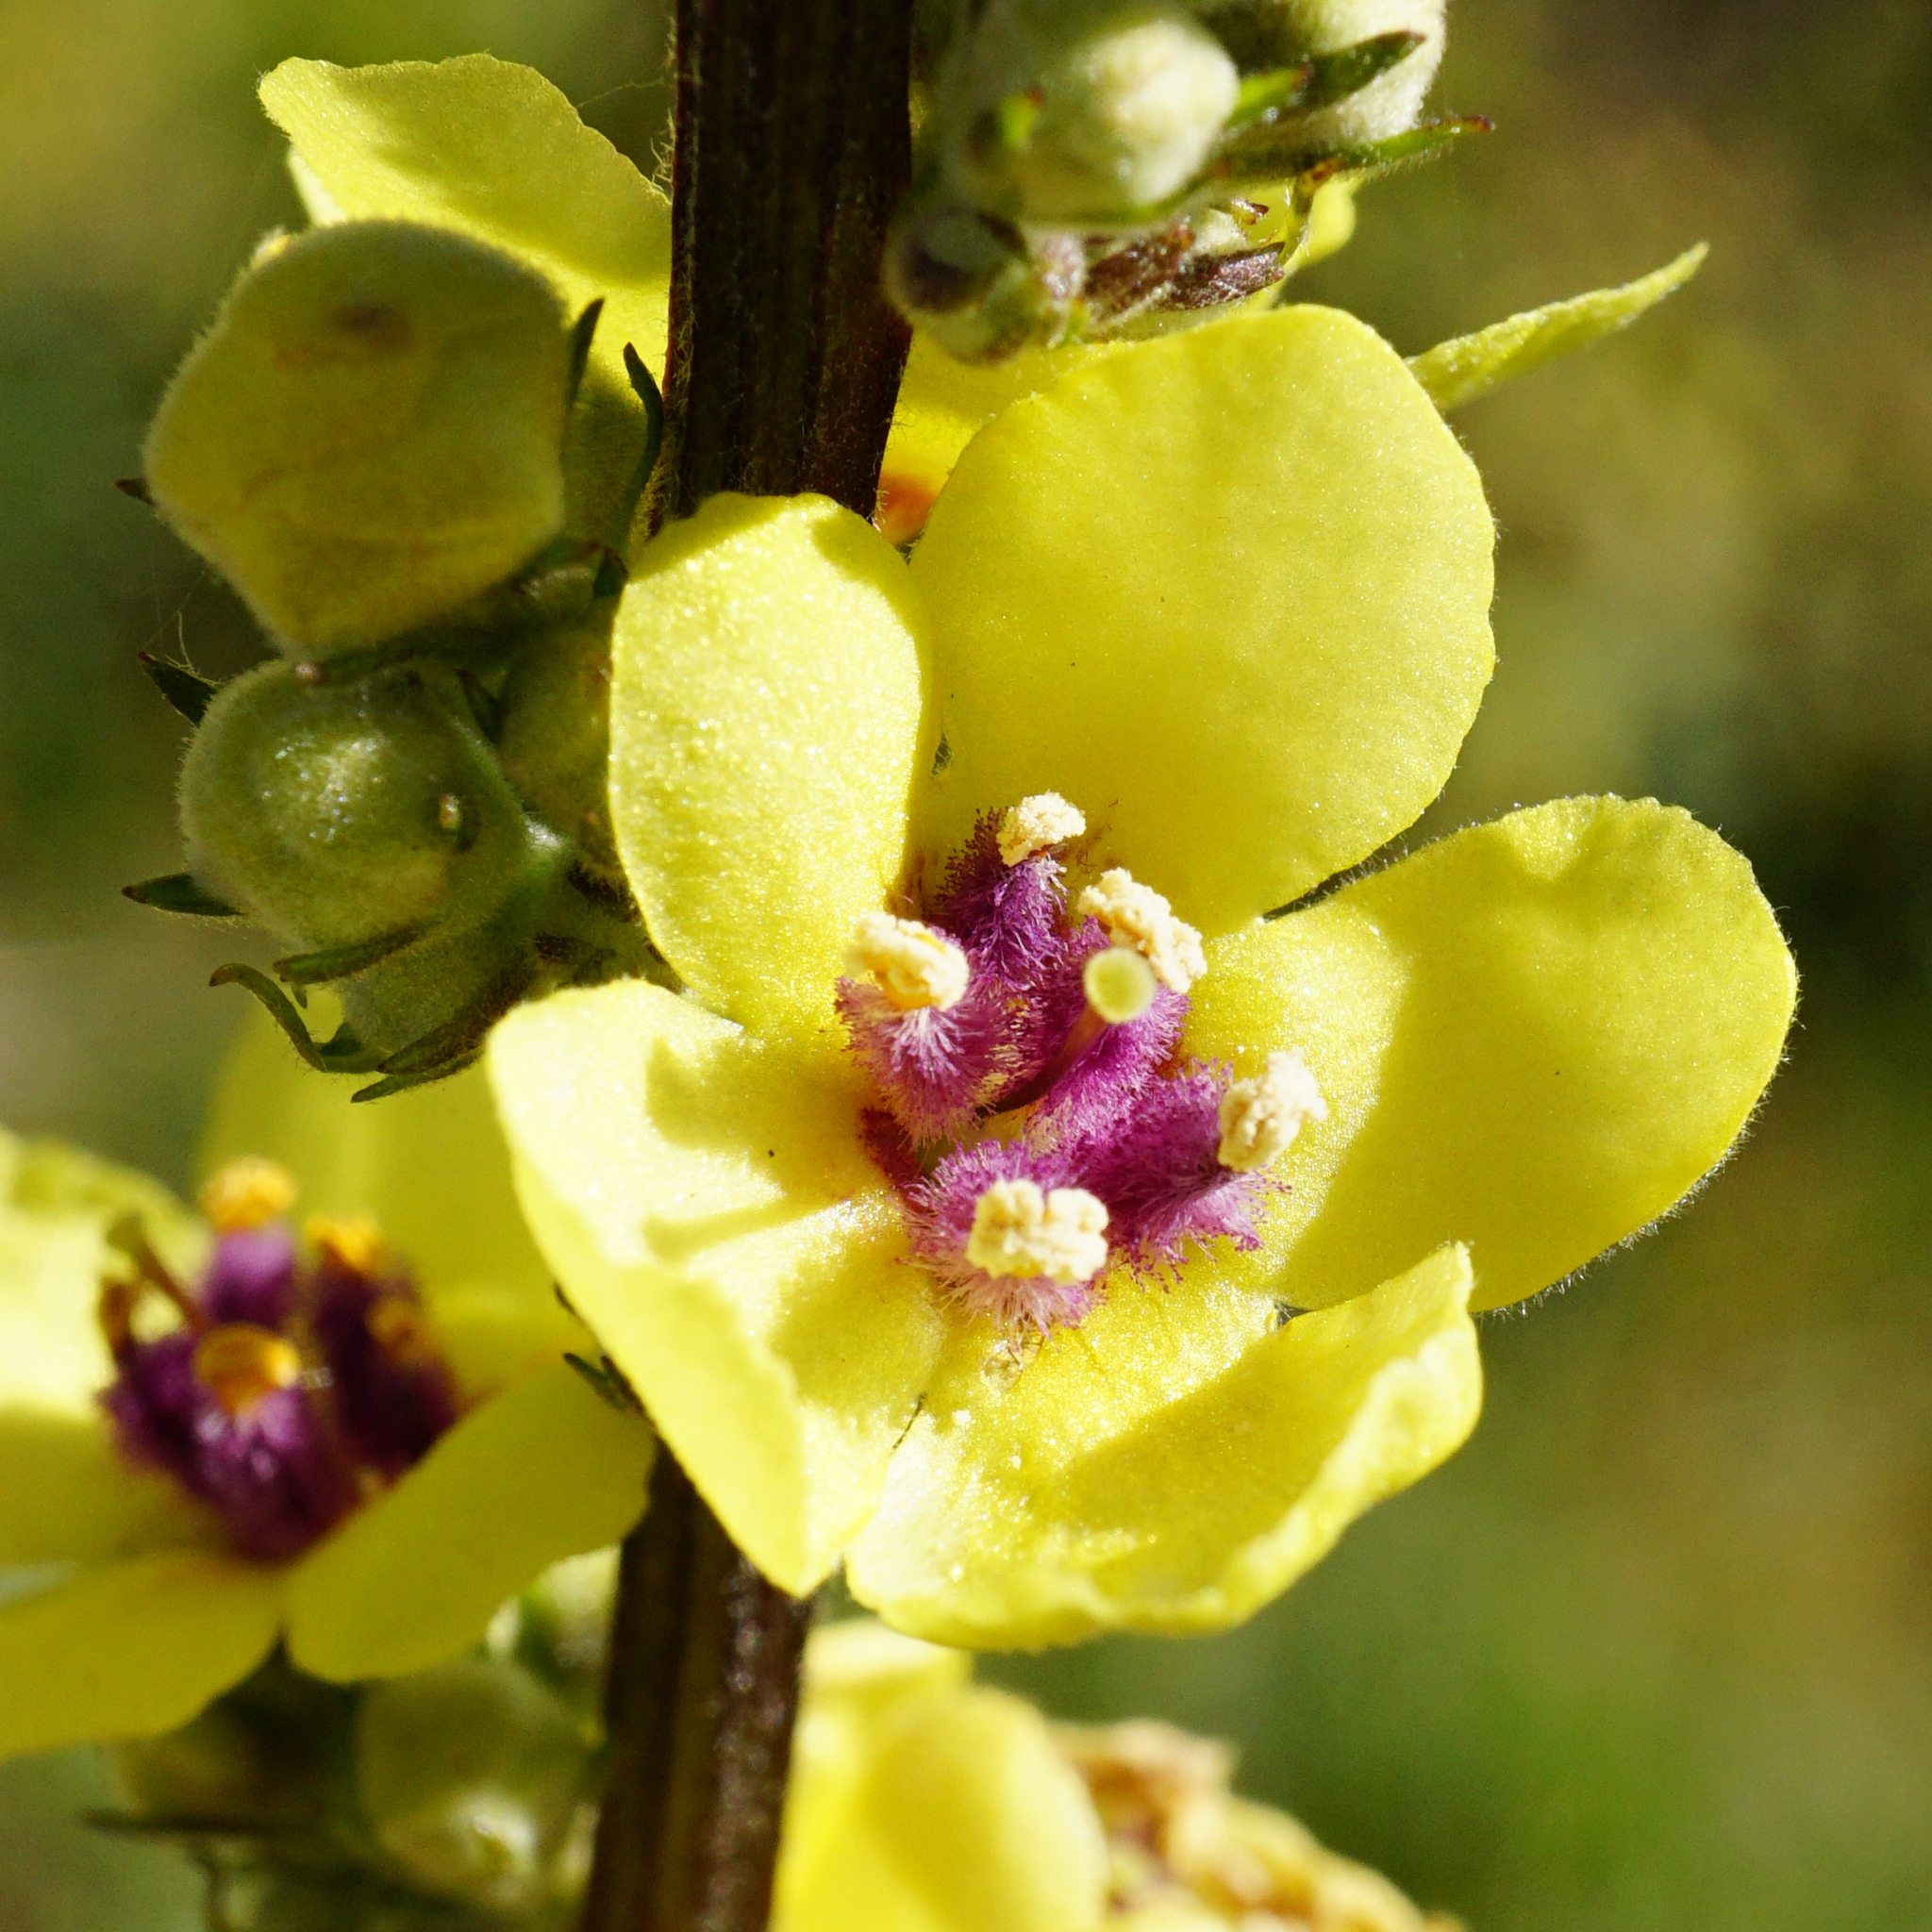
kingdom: Plantae
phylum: Tracheophyta
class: Magnoliopsida
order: Lamiales
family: Scrophulariaceae
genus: Verbascum
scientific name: Verbascum chaixii
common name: Nettle-leaved mullein
